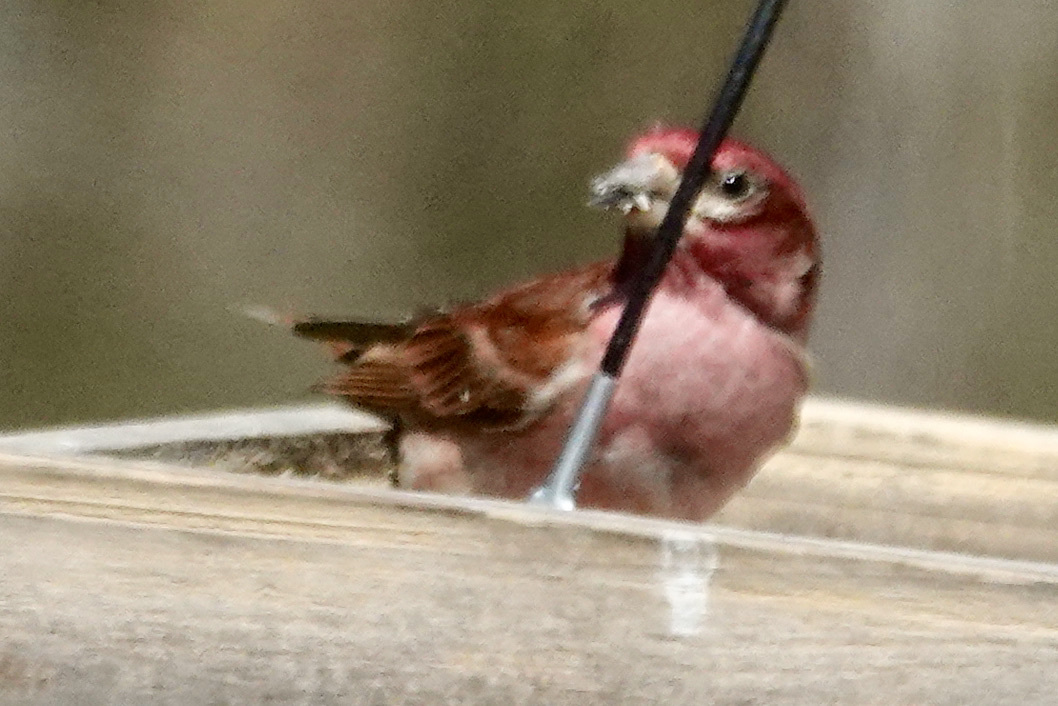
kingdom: Animalia
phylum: Chordata
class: Aves
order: Passeriformes
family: Fringillidae
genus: Haemorhous
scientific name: Haemorhous purpureus
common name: Purple finch
